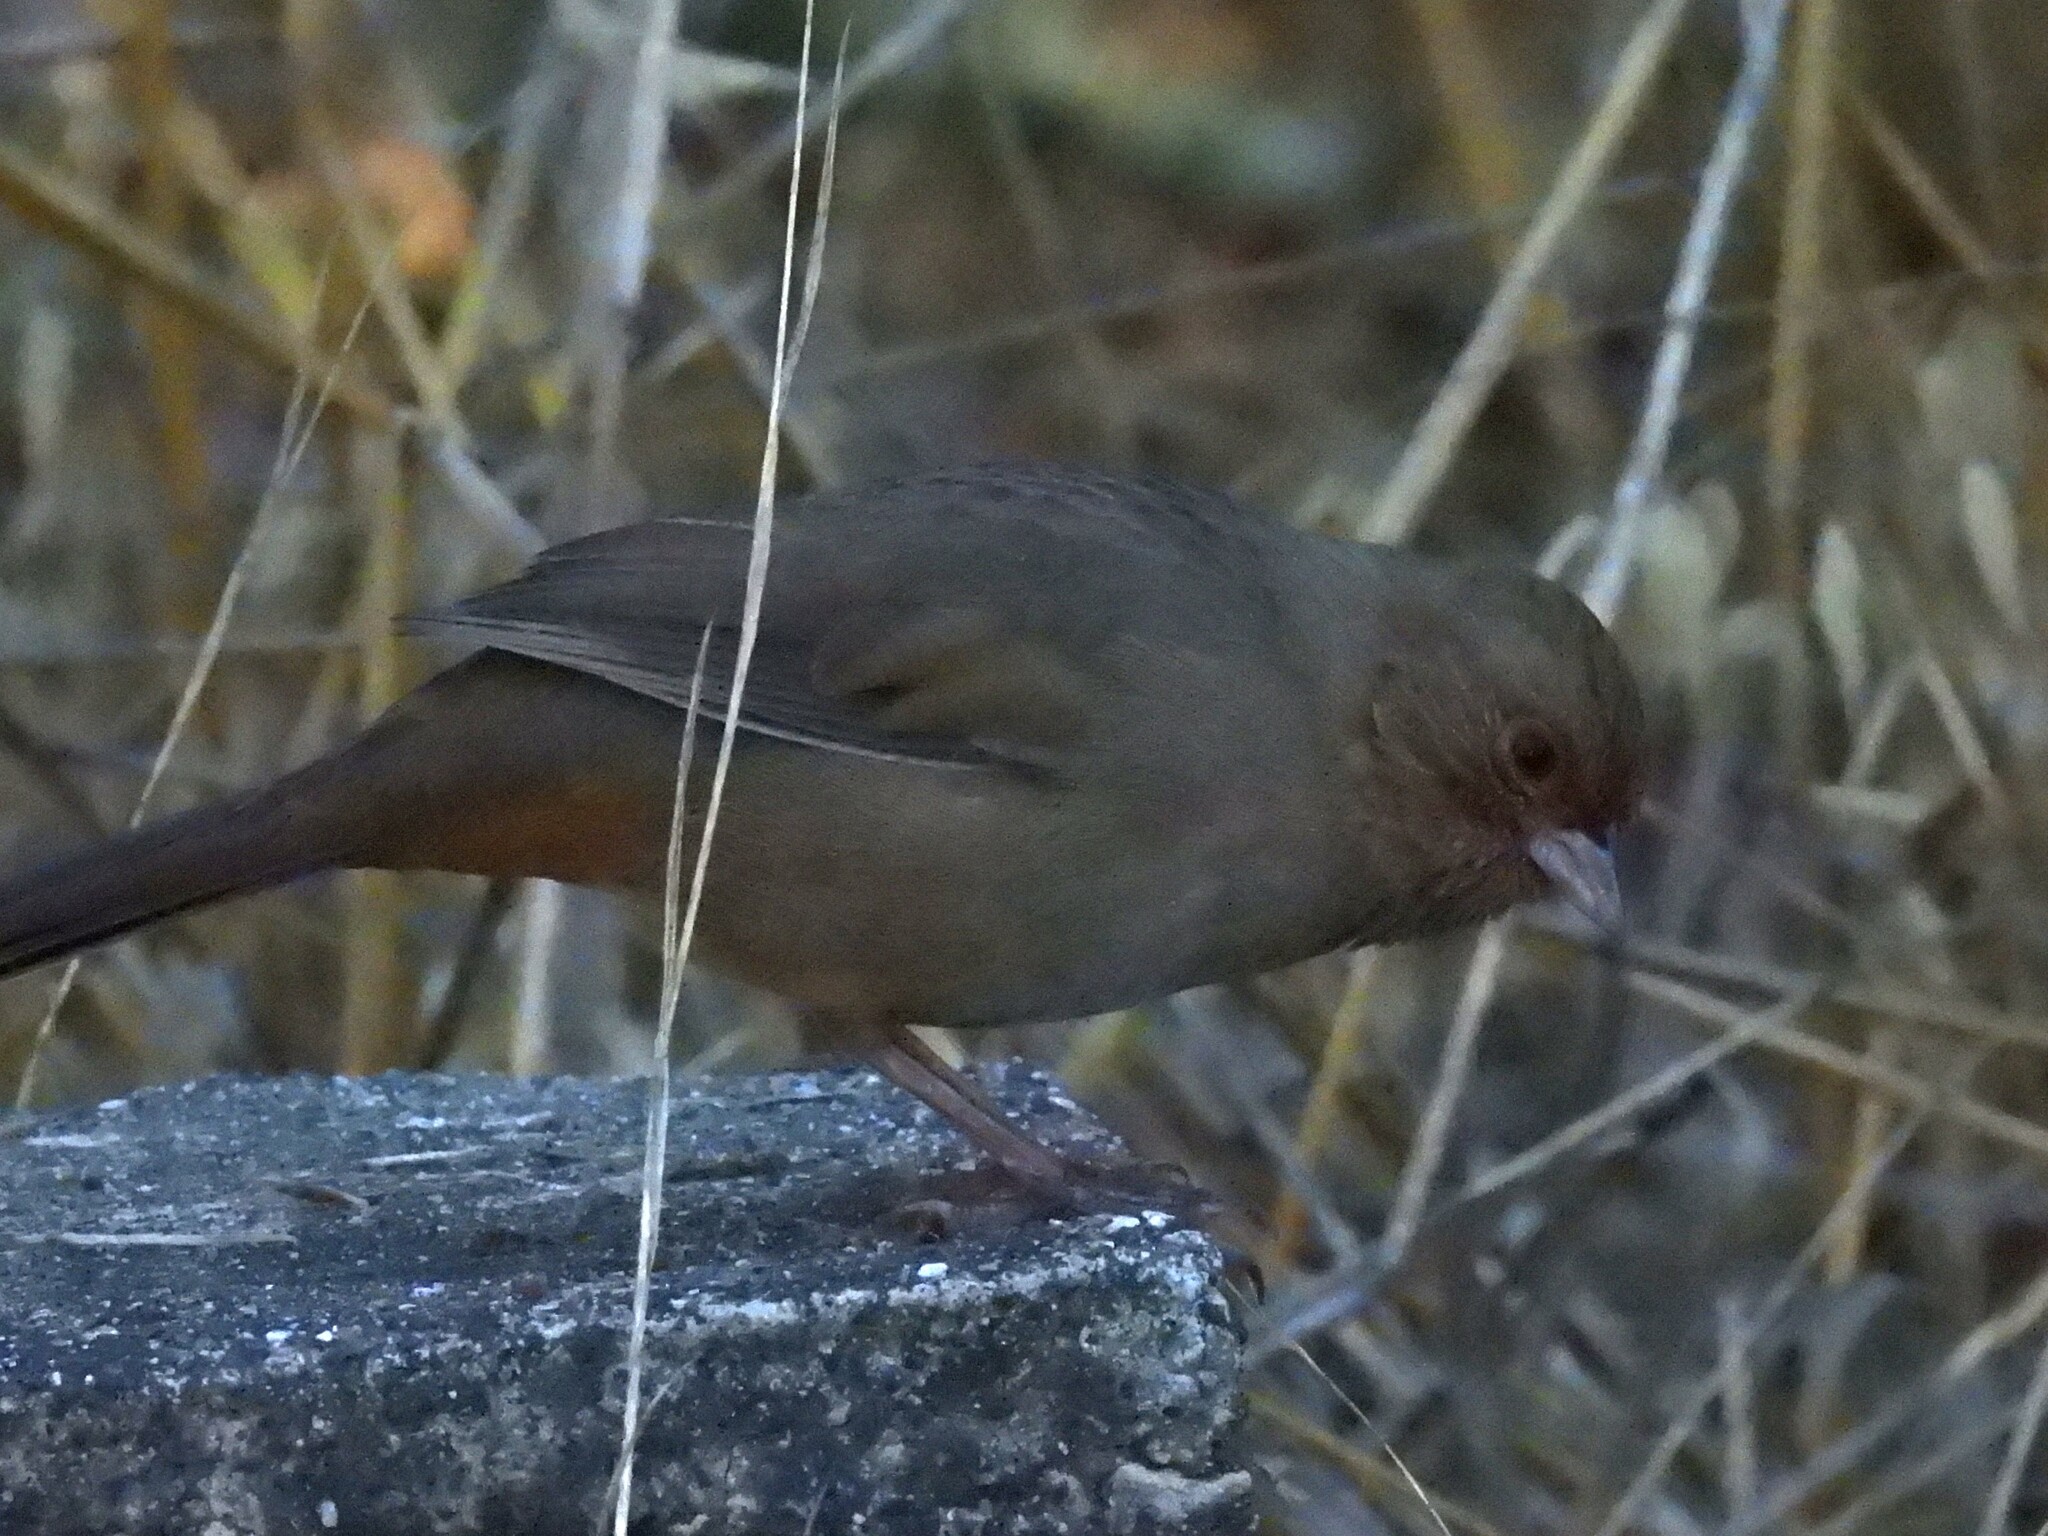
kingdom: Animalia
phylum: Chordata
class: Aves
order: Passeriformes
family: Passerellidae
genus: Melozone
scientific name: Melozone crissalis
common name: California towhee
